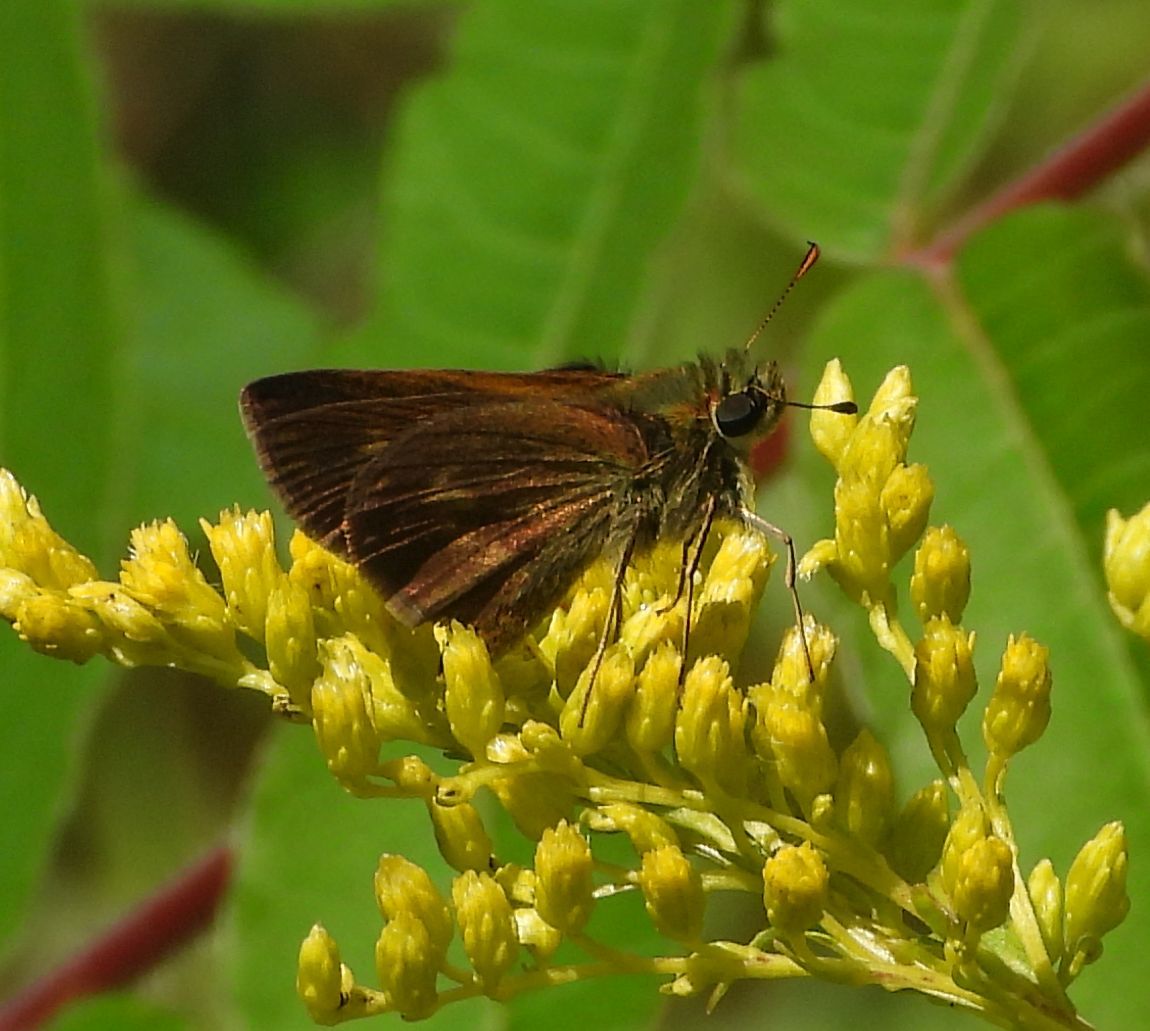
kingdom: Animalia
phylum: Arthropoda
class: Insecta
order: Lepidoptera
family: Hesperiidae
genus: Polites
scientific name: Polites egeremet
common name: Northern broken-dash
